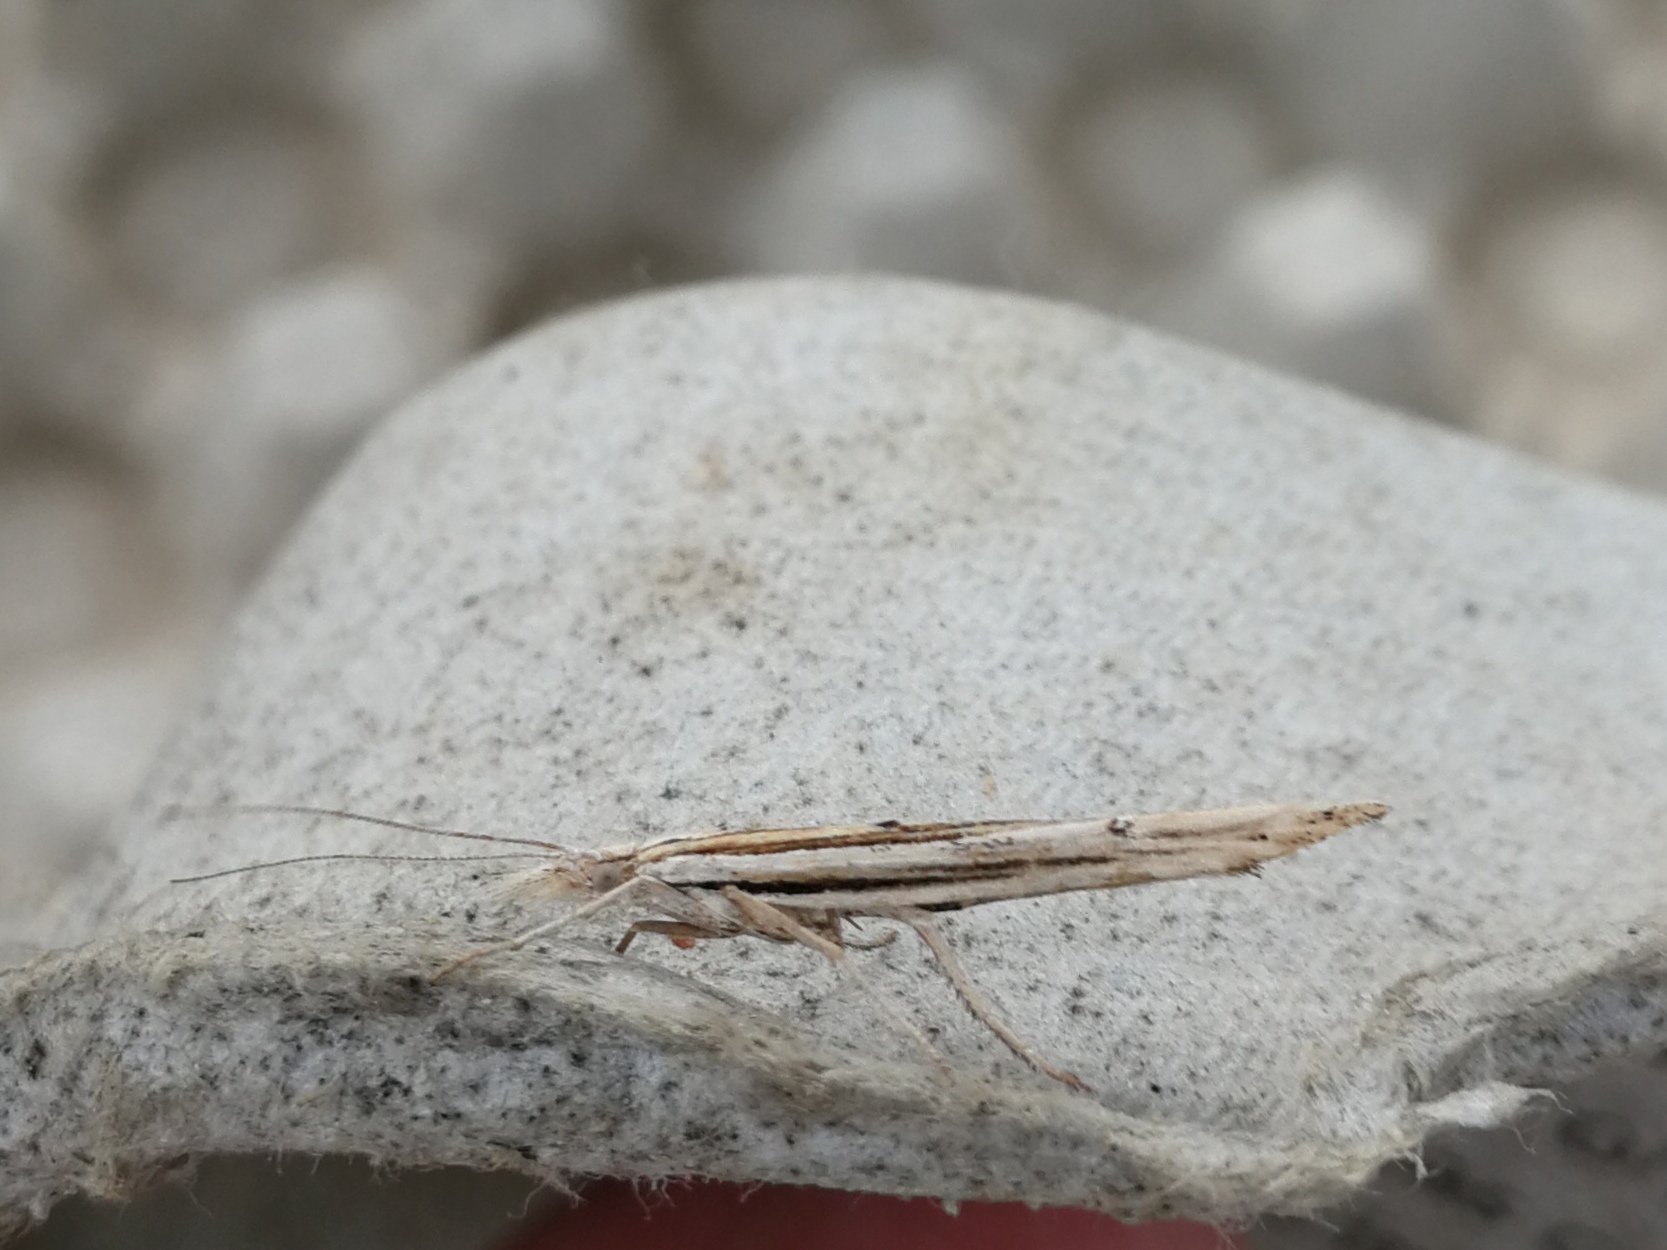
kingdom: Animalia
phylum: Arthropoda
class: Insecta
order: Lepidoptera
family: Ypsolophidae
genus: Ypsolopha
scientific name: Ypsolopha mucronella
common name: Spindle smudge
